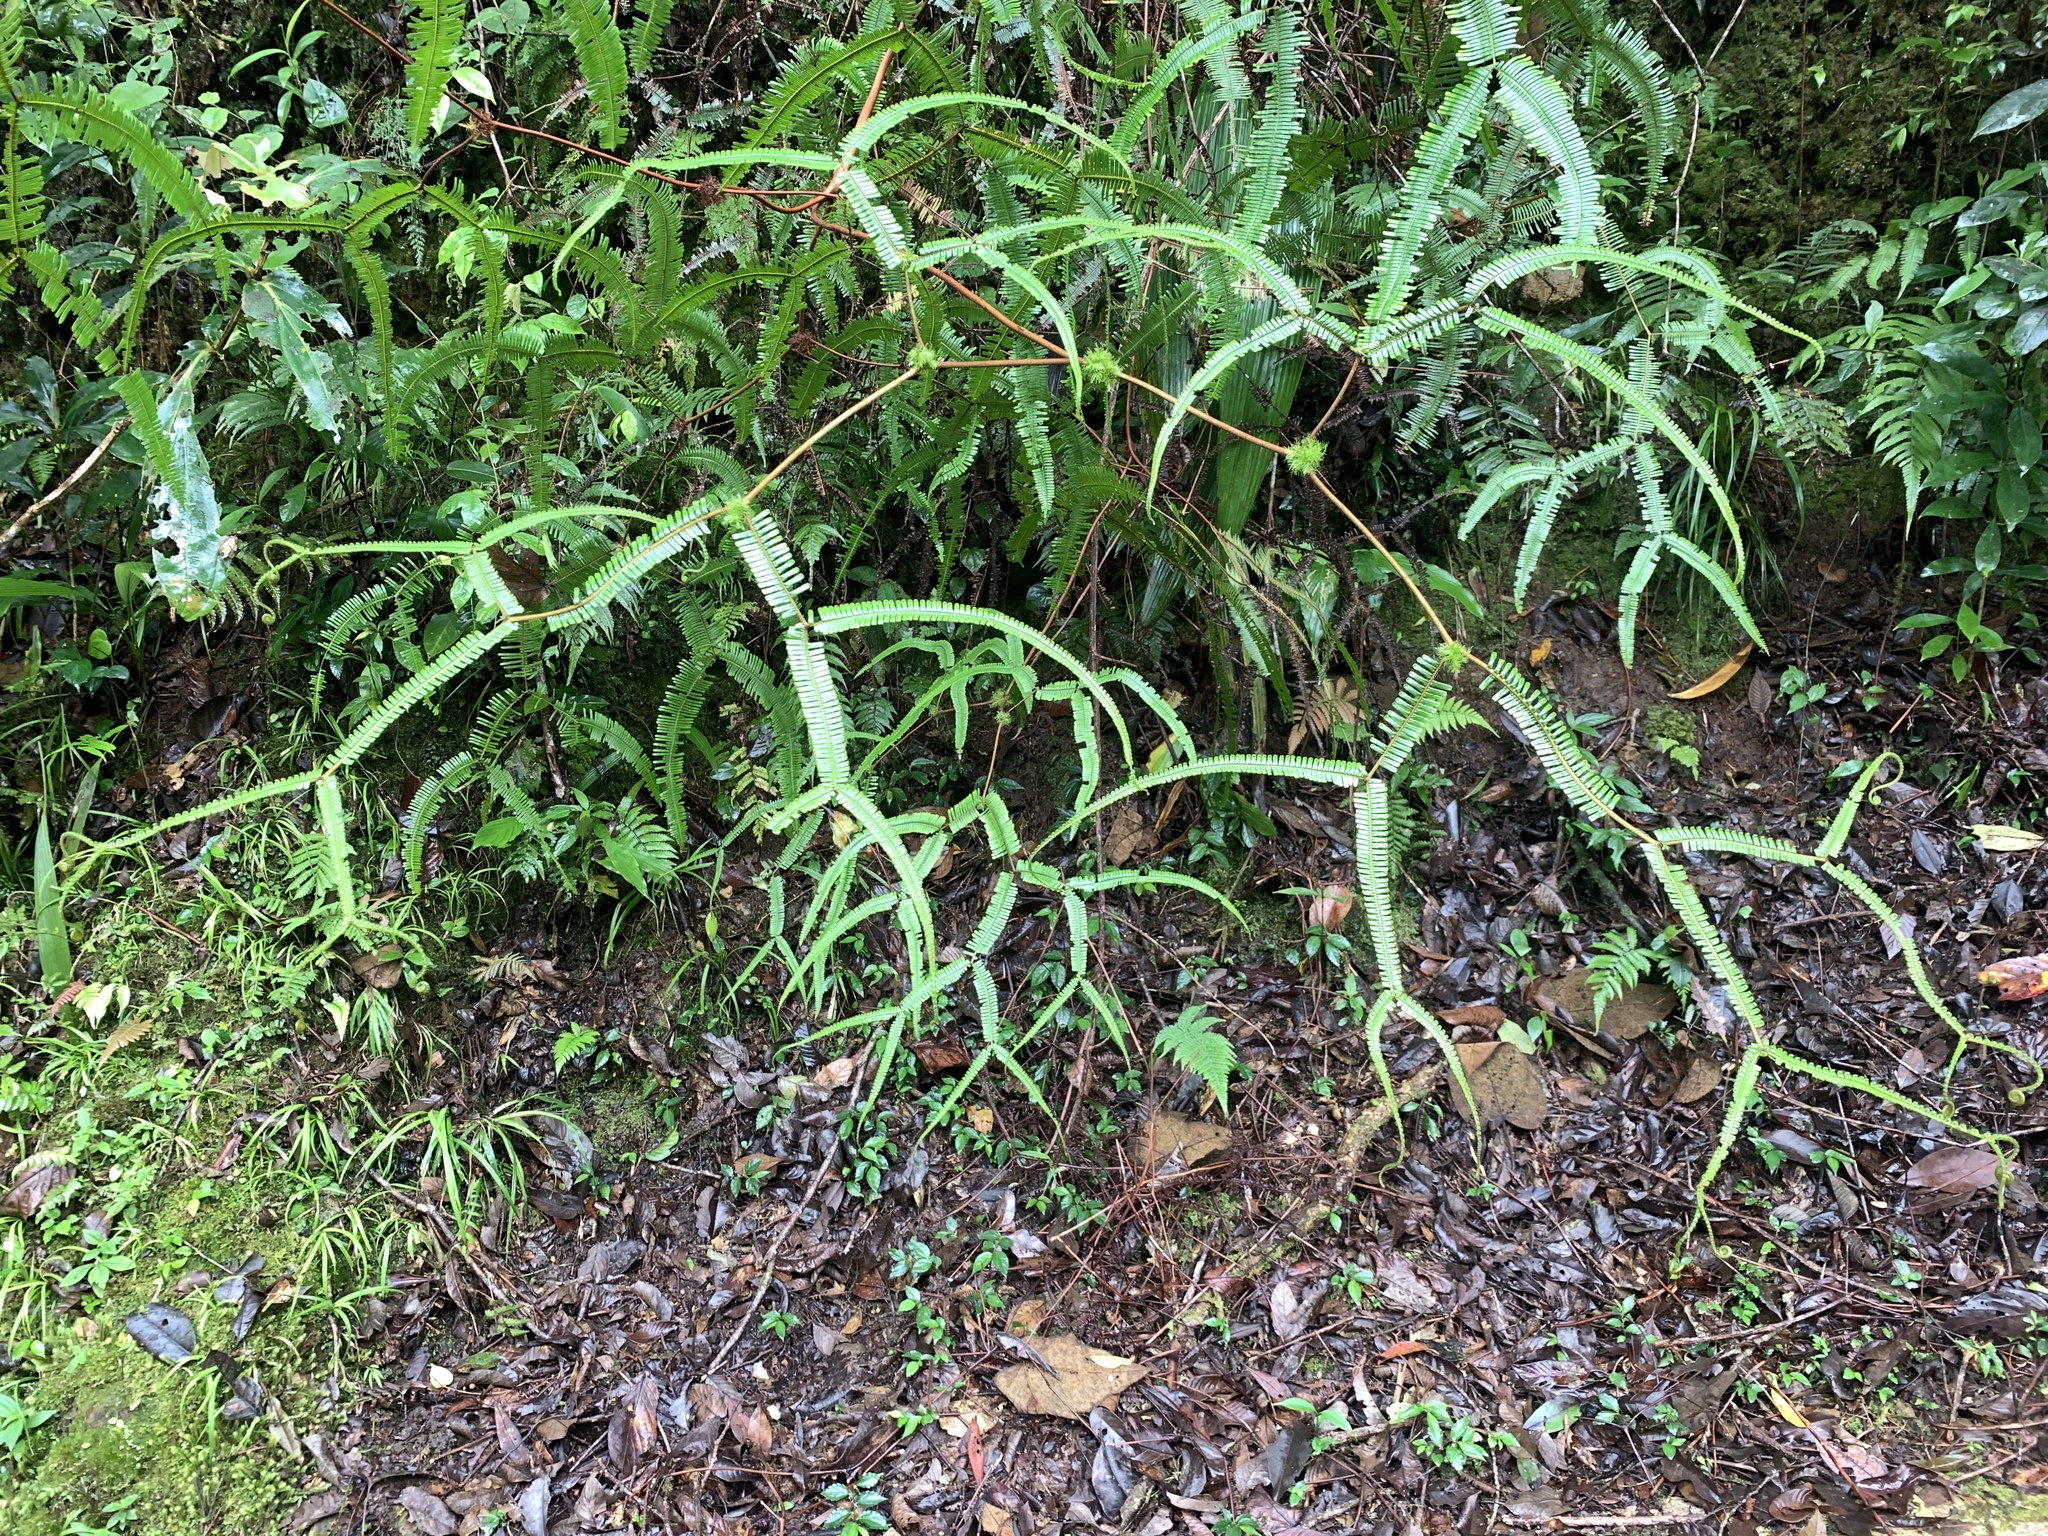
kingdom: Plantae
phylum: Tracheophyta
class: Polypodiopsida
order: Gleicheniales
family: Gleicheniaceae
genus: Sticherus
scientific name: Sticherus truncatus
